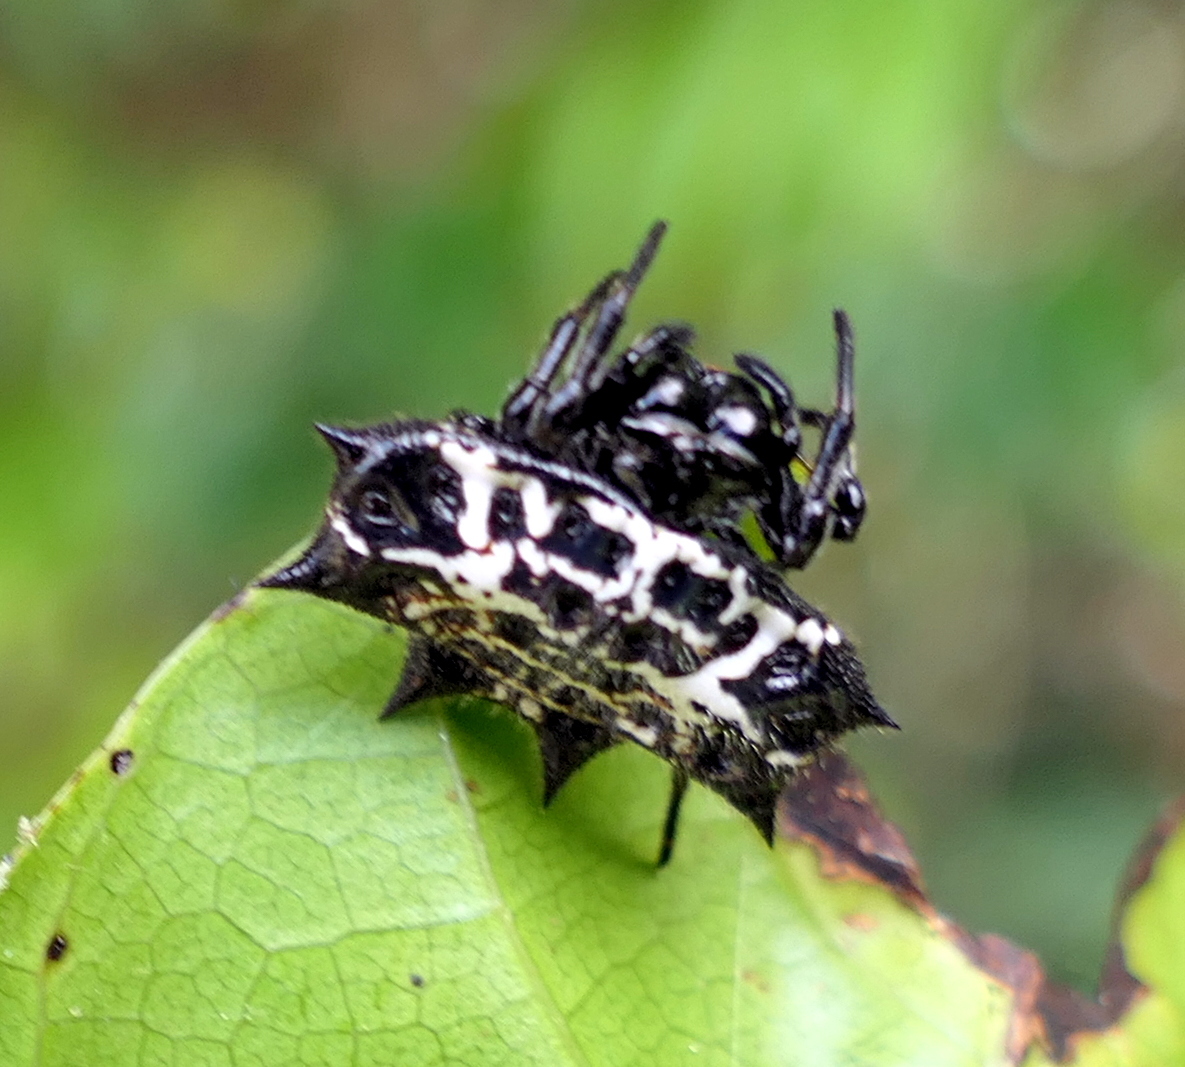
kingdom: Animalia
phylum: Arthropoda
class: Arachnida
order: Araneae
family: Araneidae
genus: Gasteracantha
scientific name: Gasteracantha cancriformis
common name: Orb weavers
